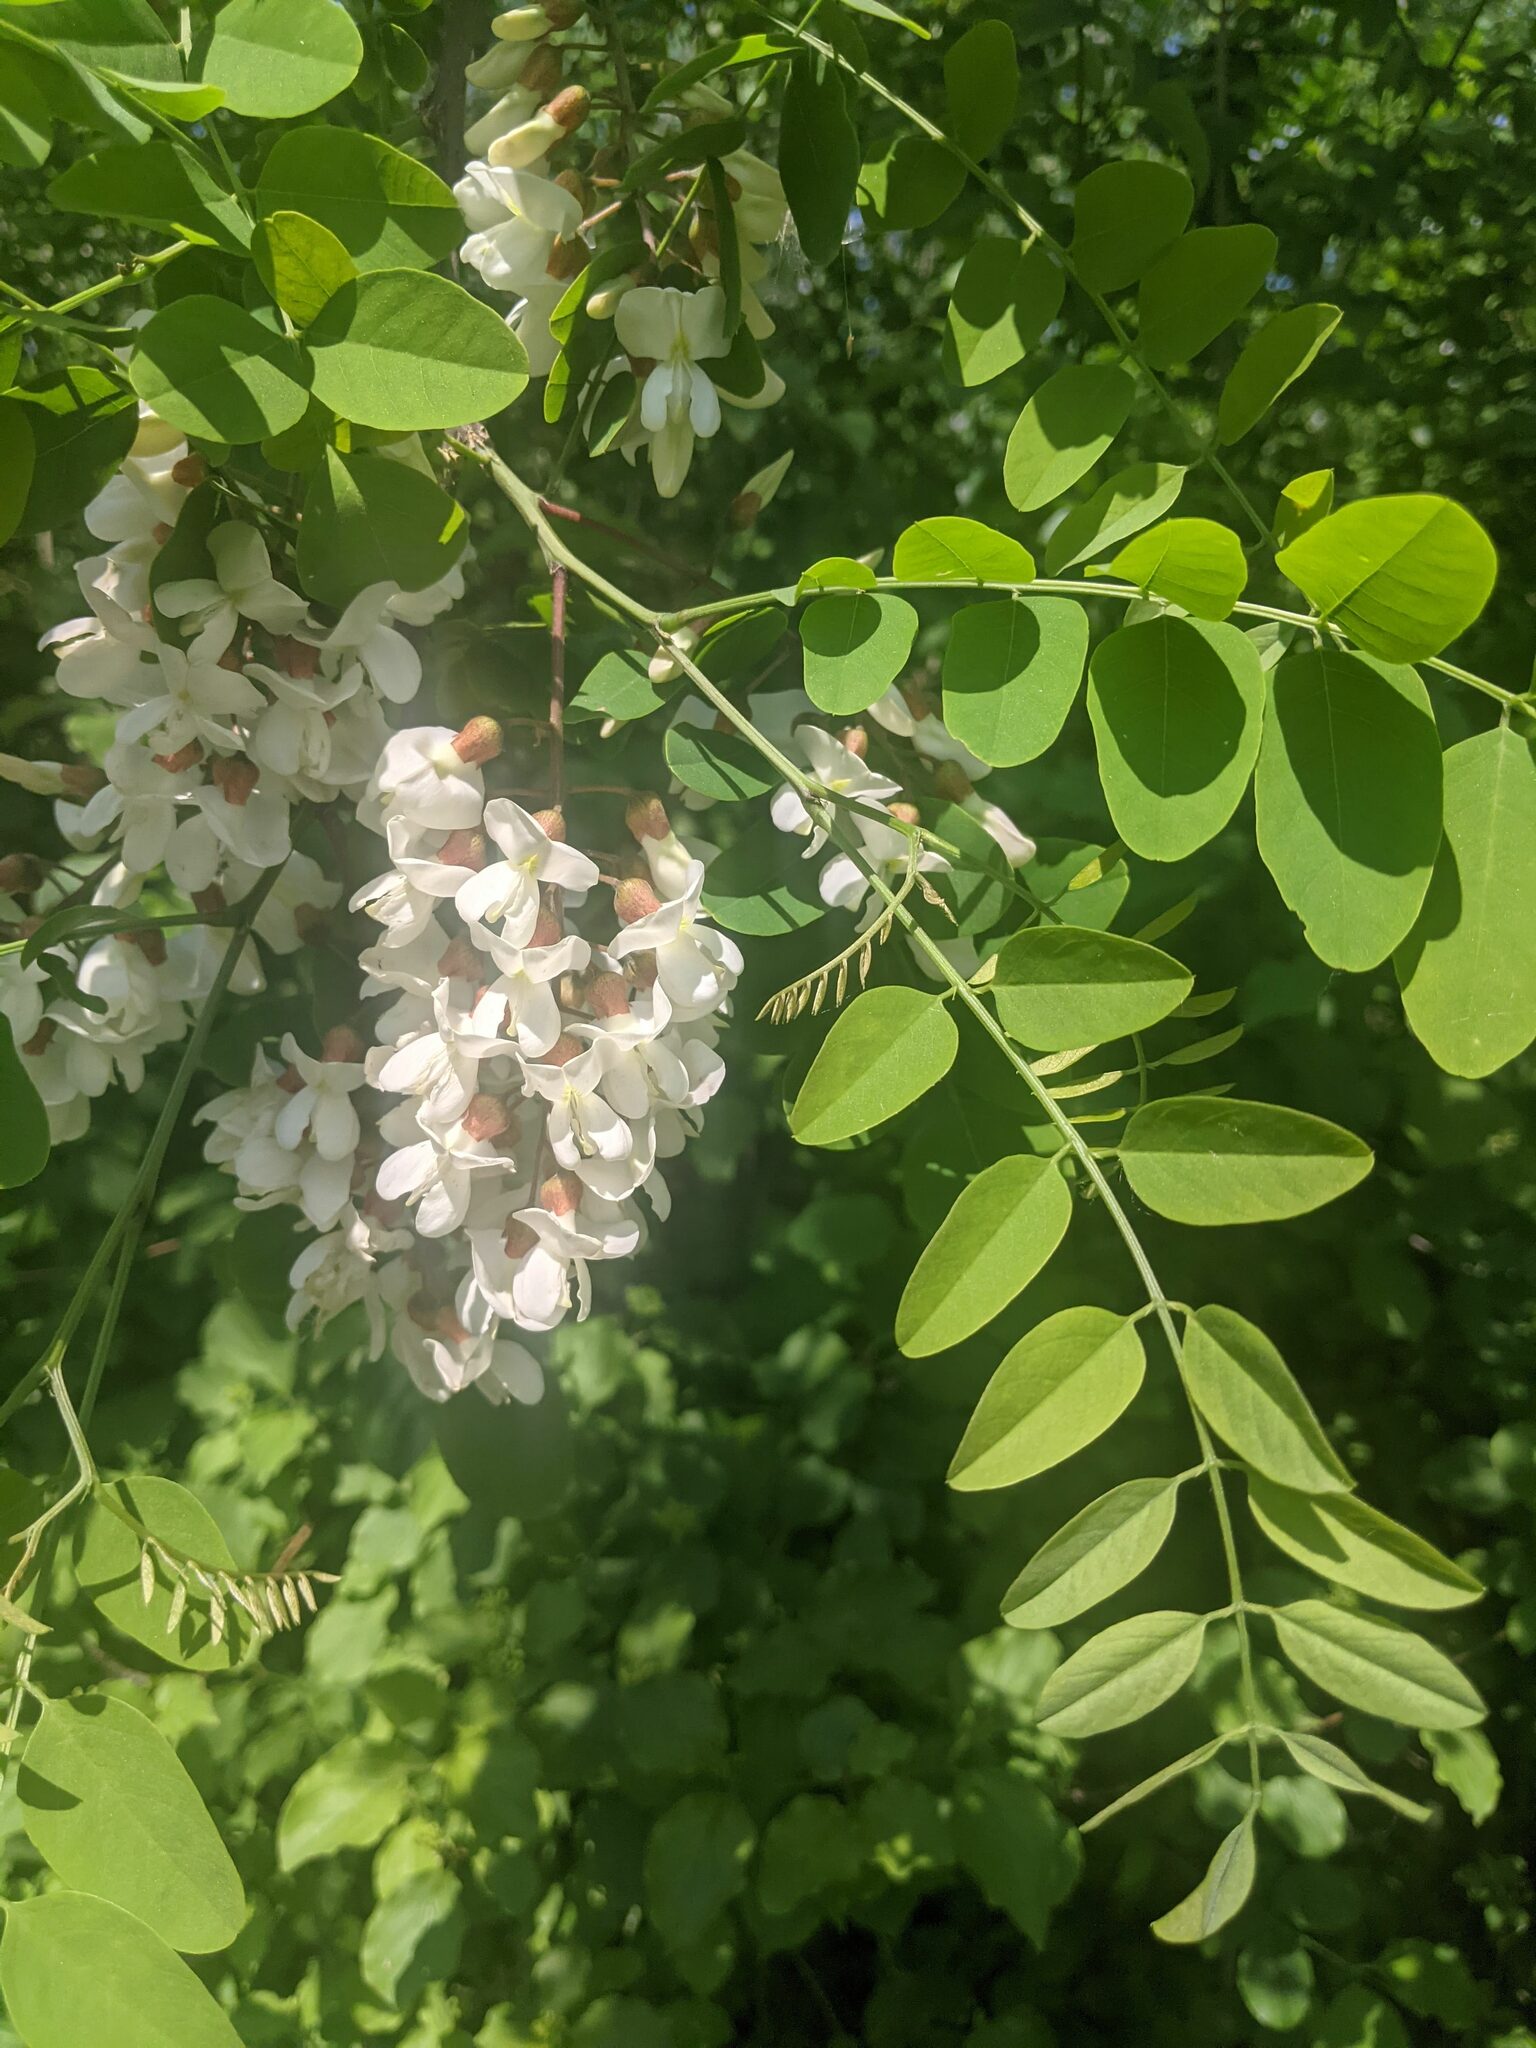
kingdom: Plantae
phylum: Tracheophyta
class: Magnoliopsida
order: Fabales
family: Fabaceae
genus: Robinia
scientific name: Robinia pseudoacacia
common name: Black locust
